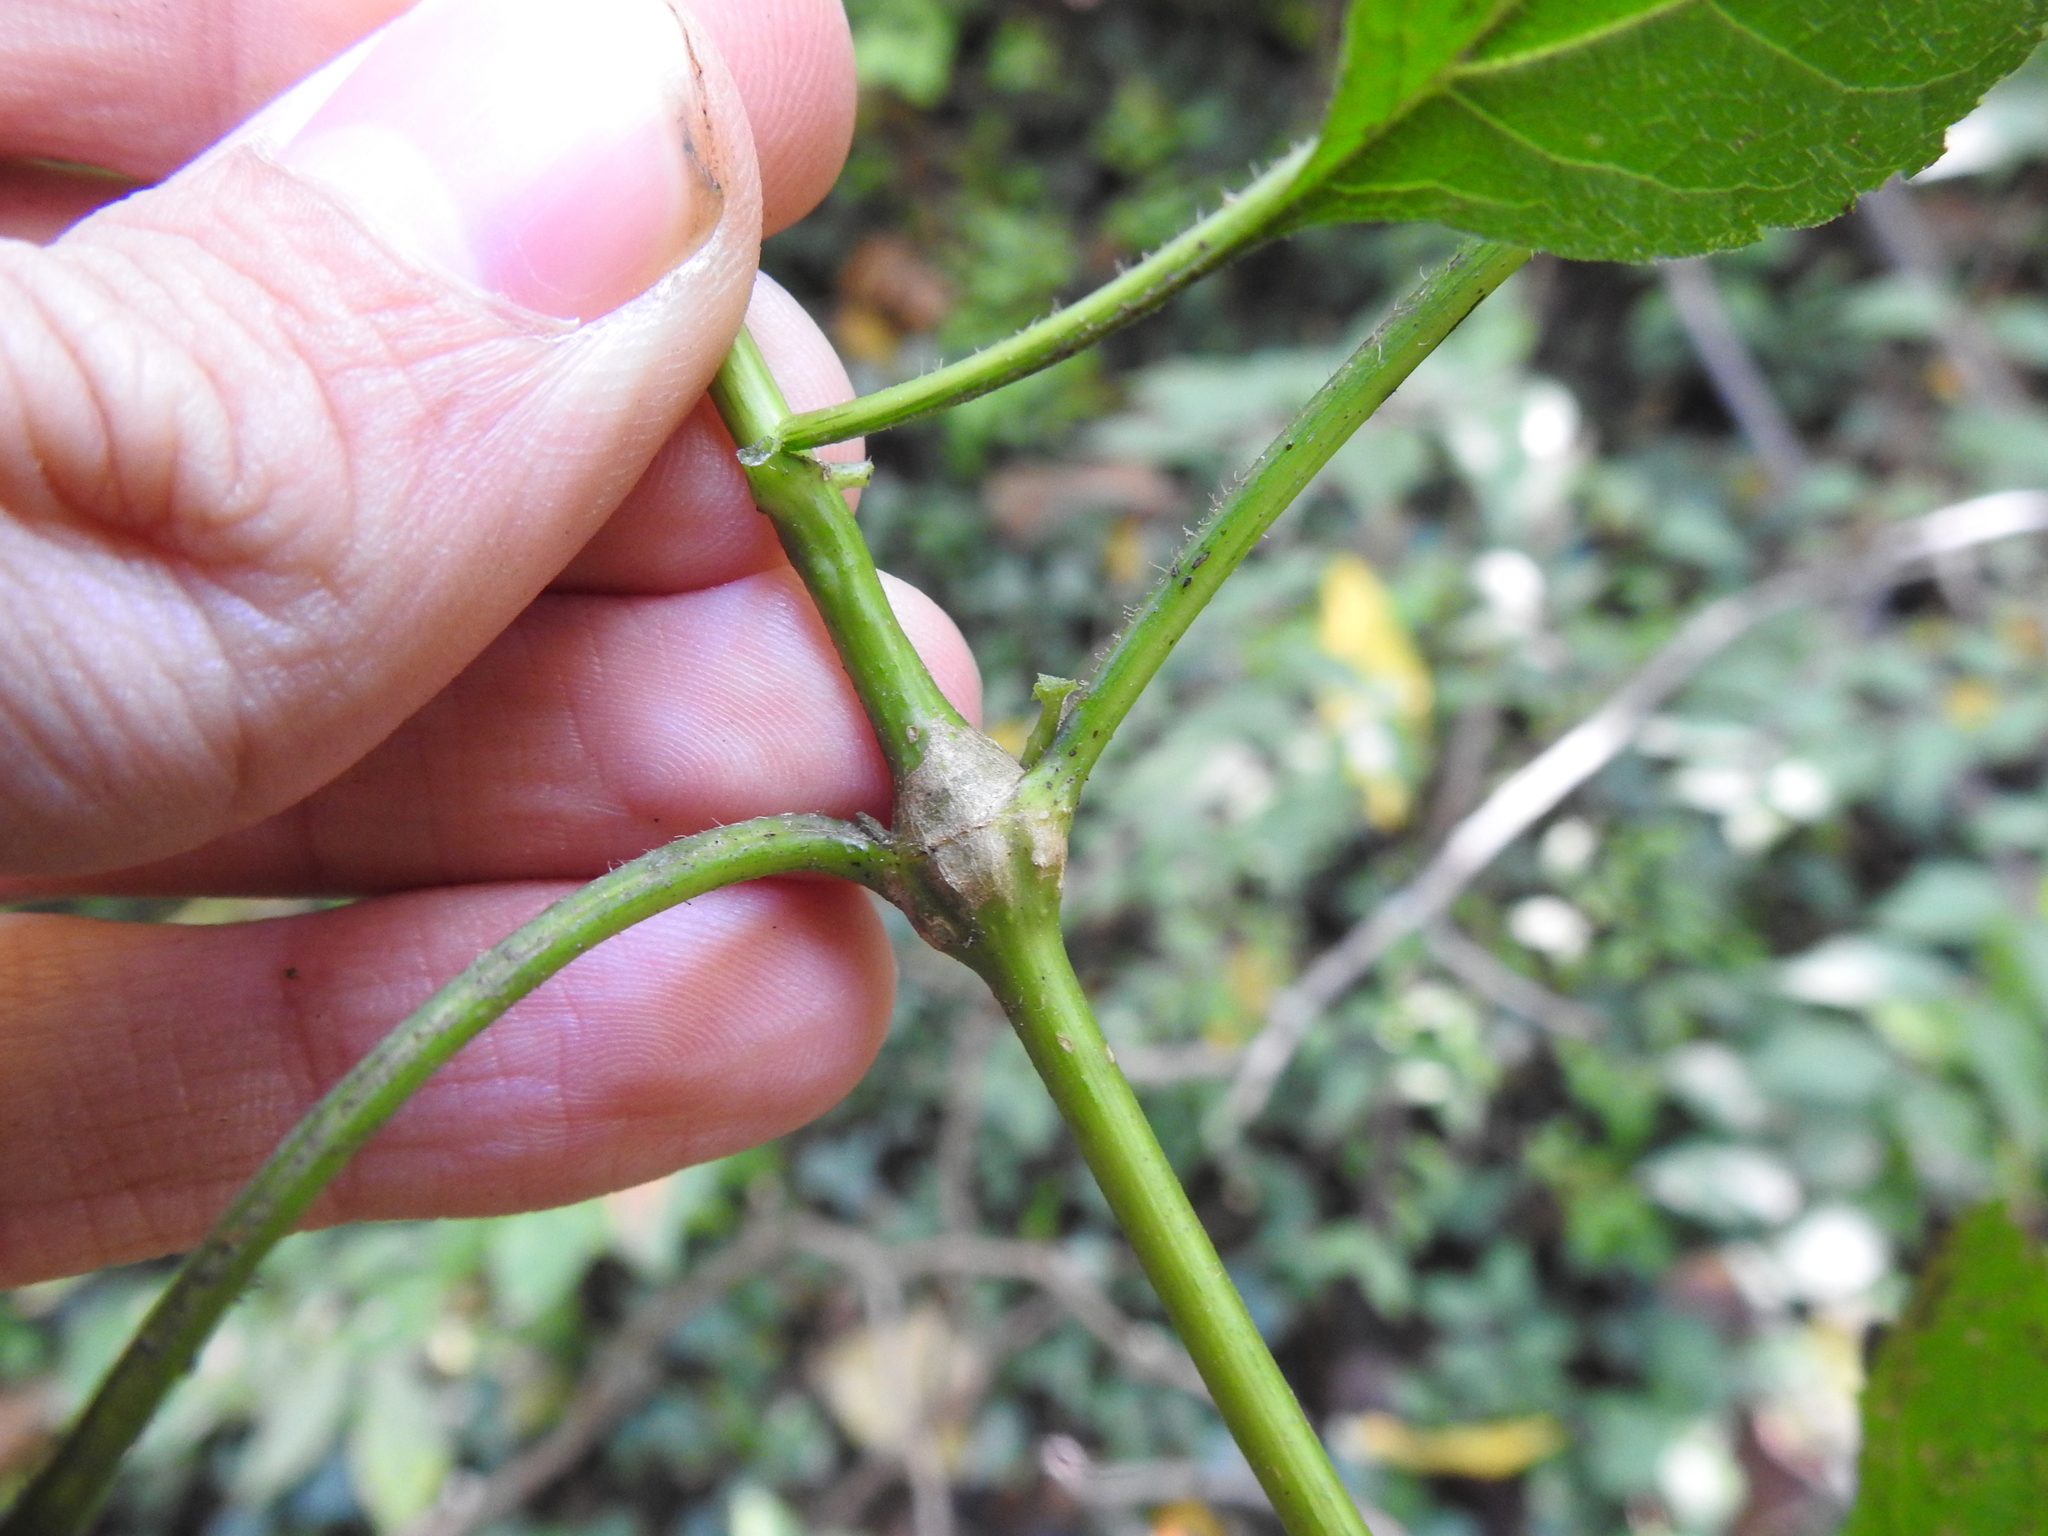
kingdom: Animalia
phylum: Arthropoda
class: Insecta
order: Diptera
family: Cecidomyiidae
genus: Neolasioptera
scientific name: Neolasioptera eupatorii
